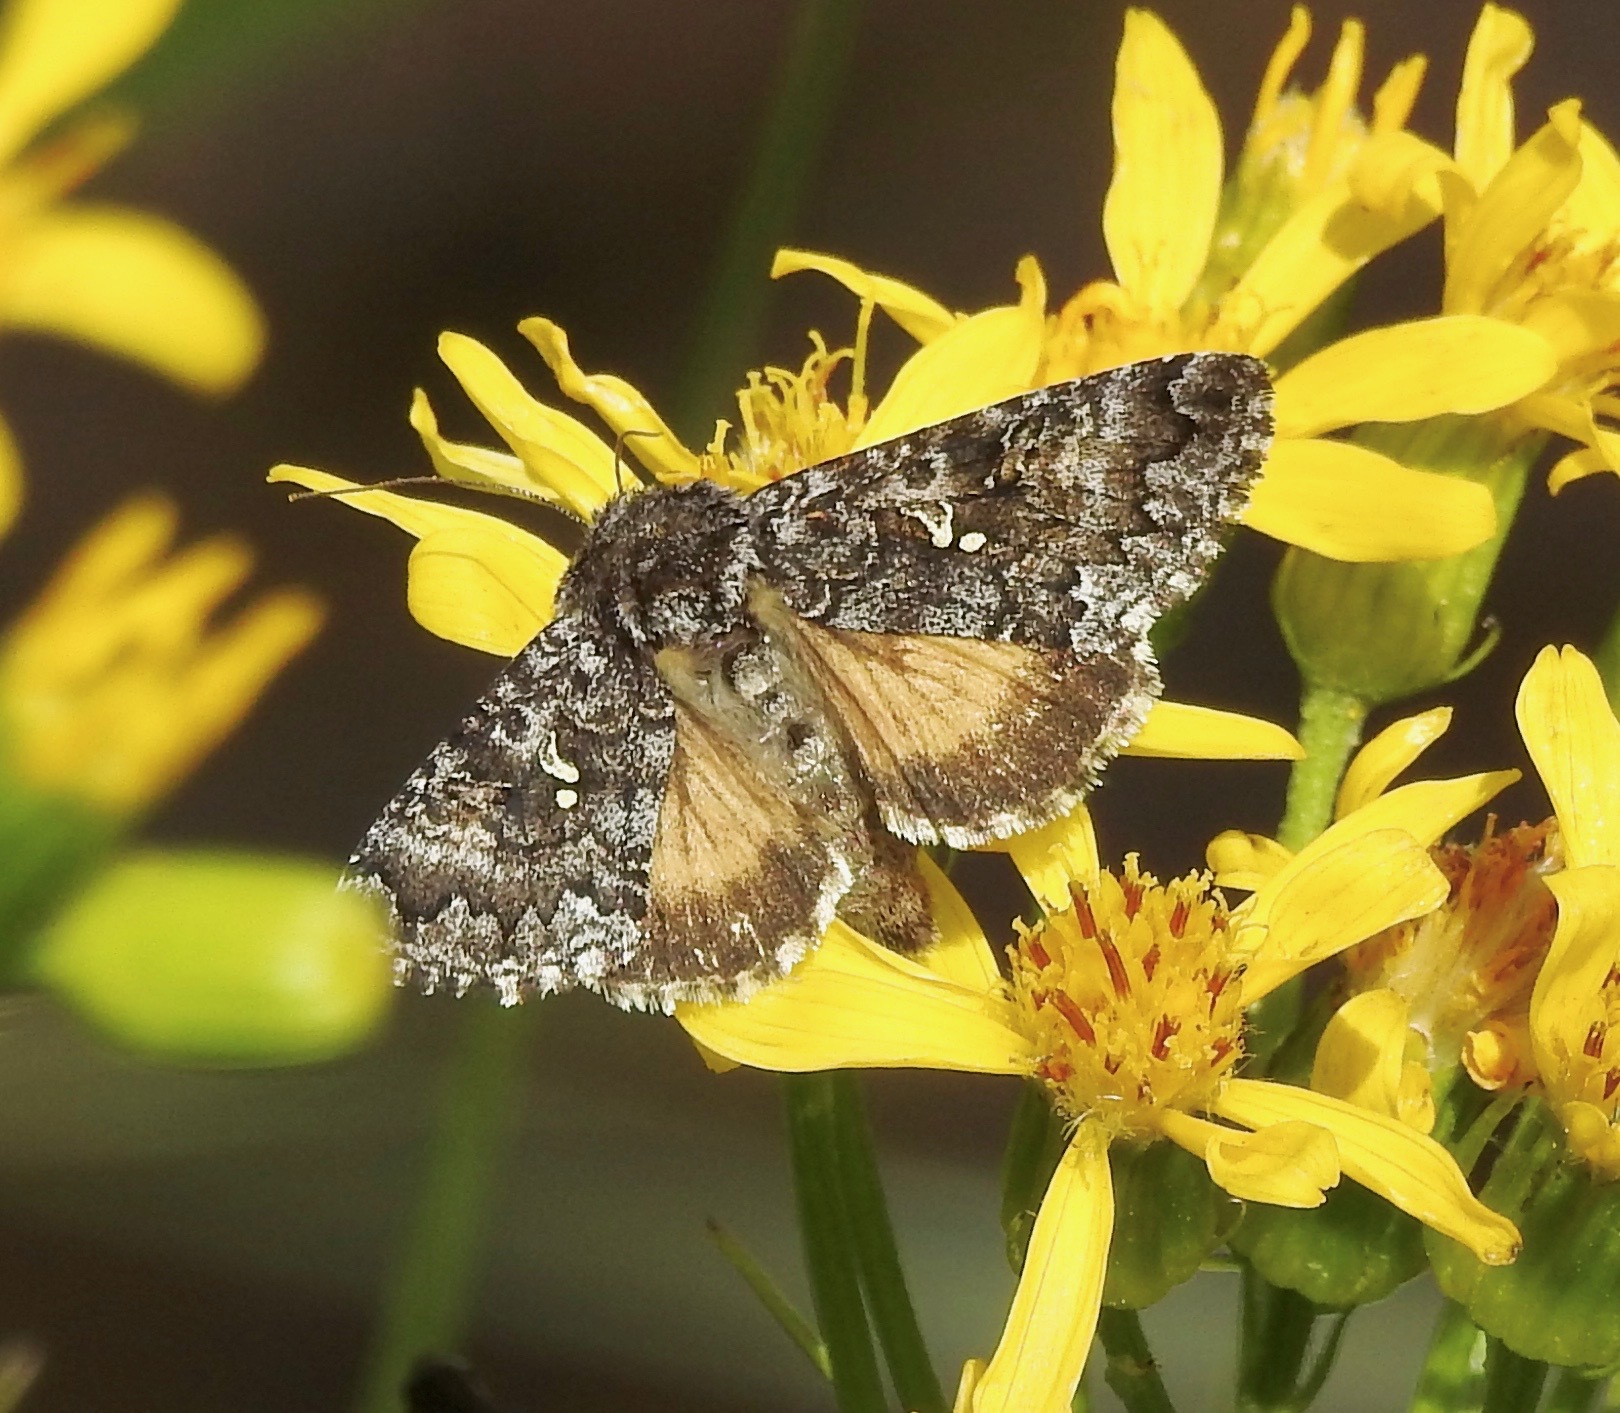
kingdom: Animalia
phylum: Arthropoda
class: Insecta
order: Lepidoptera
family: Noctuidae
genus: Syngrapha
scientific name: Syngrapha angulidens
